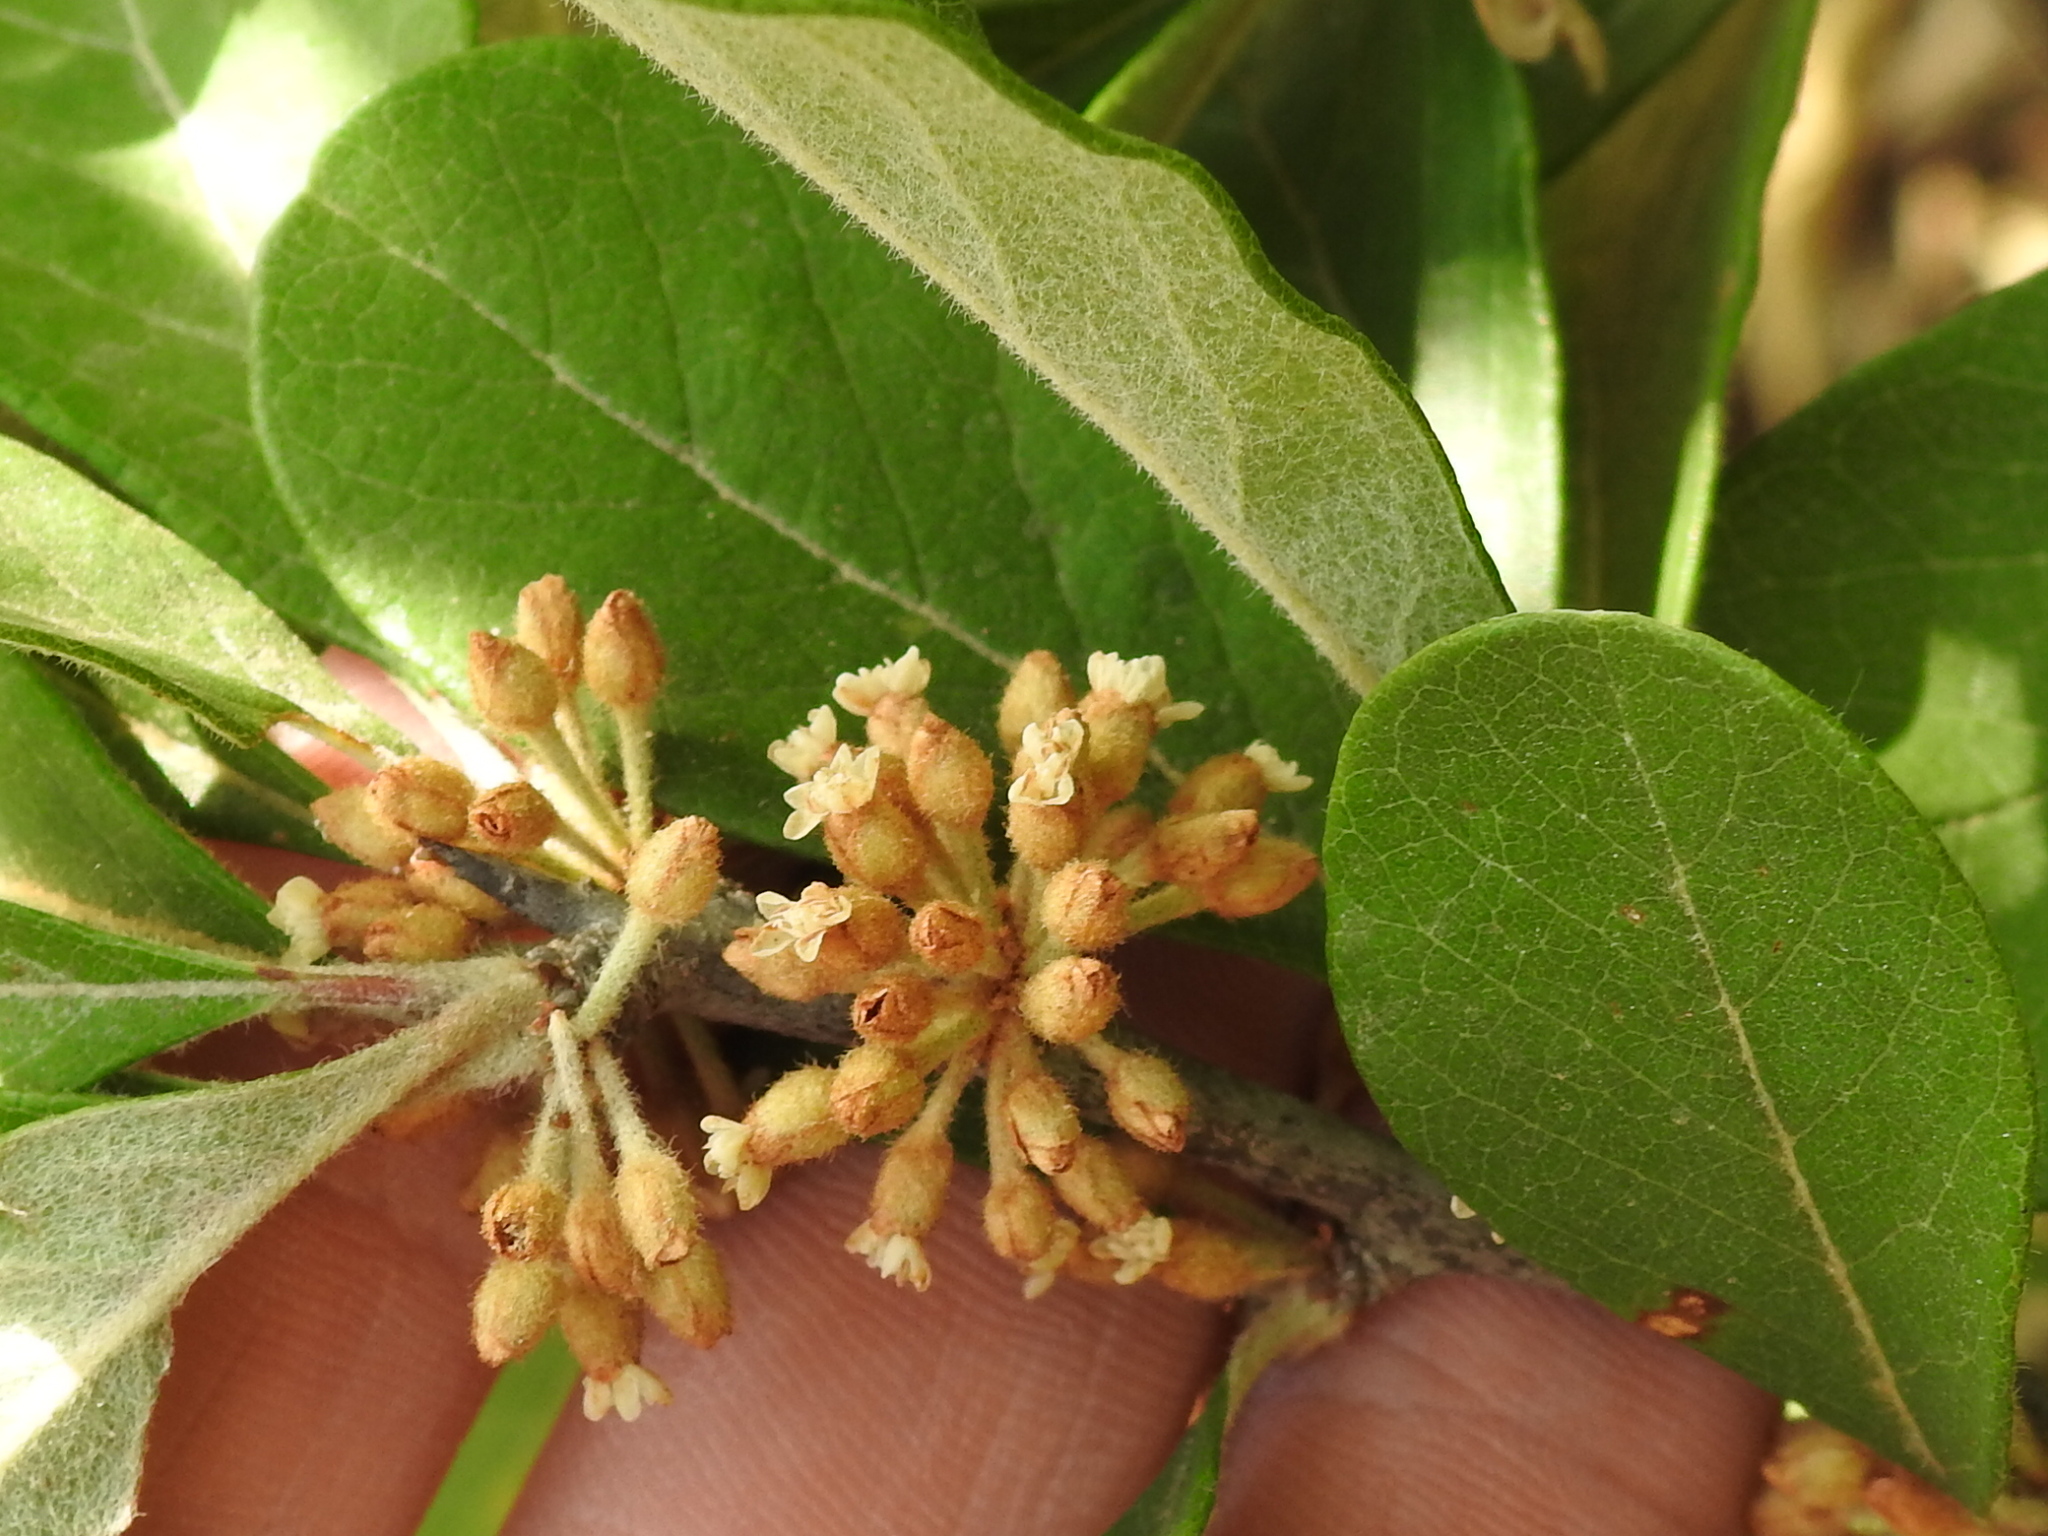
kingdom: Plantae
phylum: Tracheophyta
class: Magnoliopsida
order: Ericales
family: Sapotaceae
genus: Sideroxylon
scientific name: Sideroxylon lanuginosum
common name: Chittamwood
